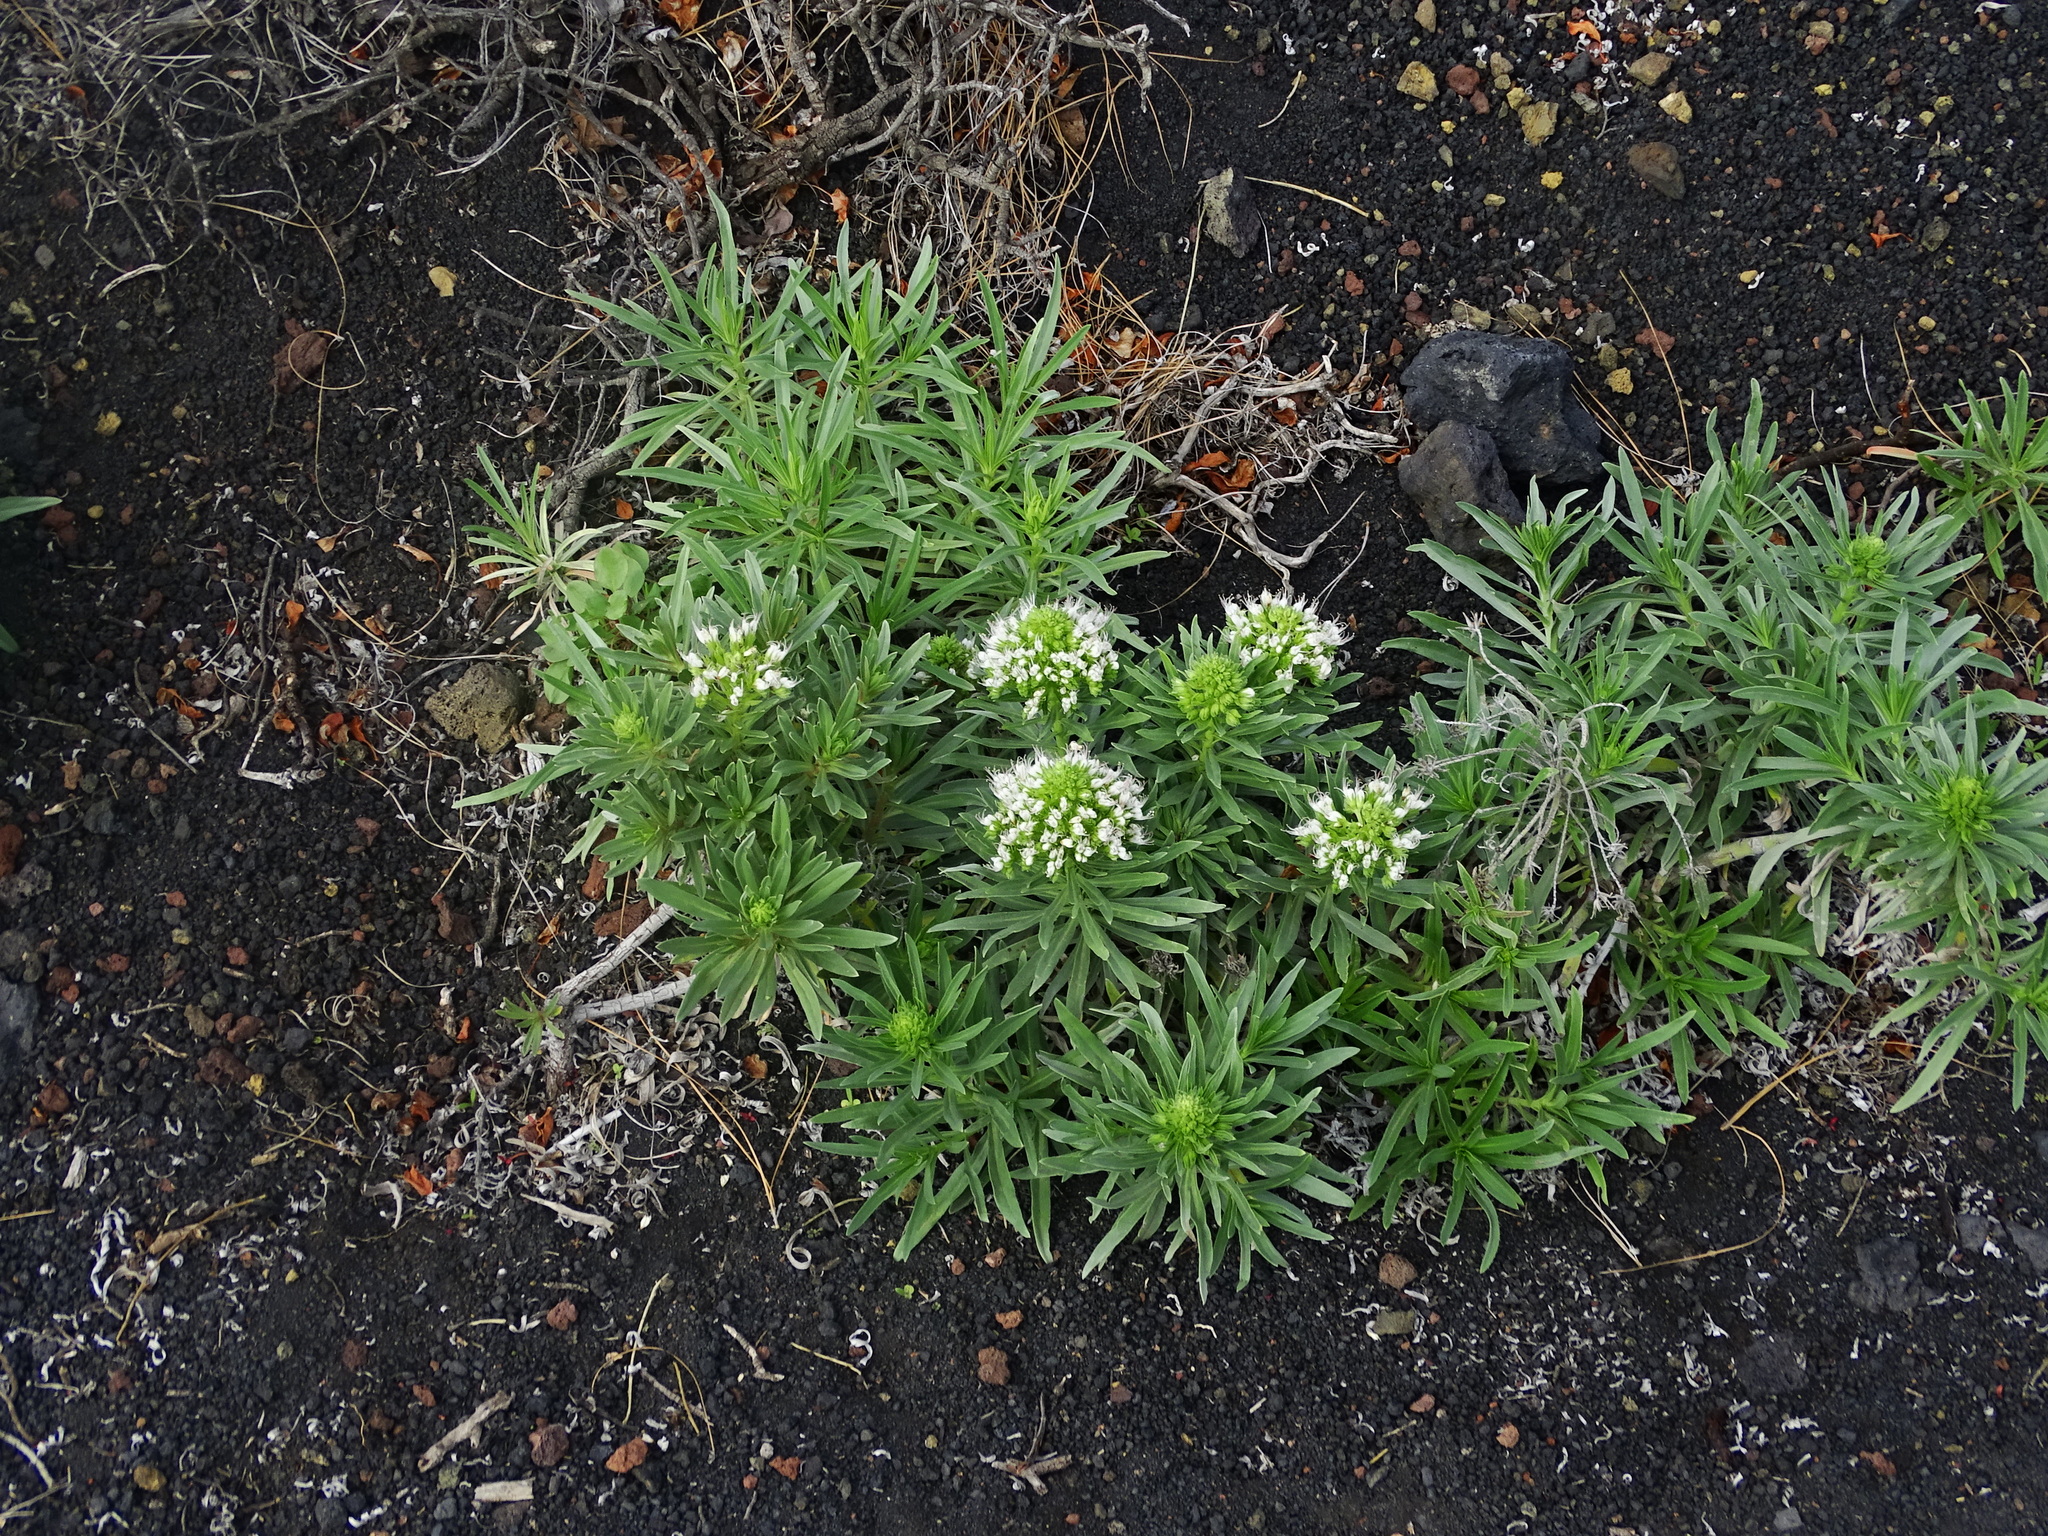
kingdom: Plantae
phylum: Tracheophyta
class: Magnoliopsida
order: Boraginales
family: Boraginaceae
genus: Echium
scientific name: Echium brevirame
